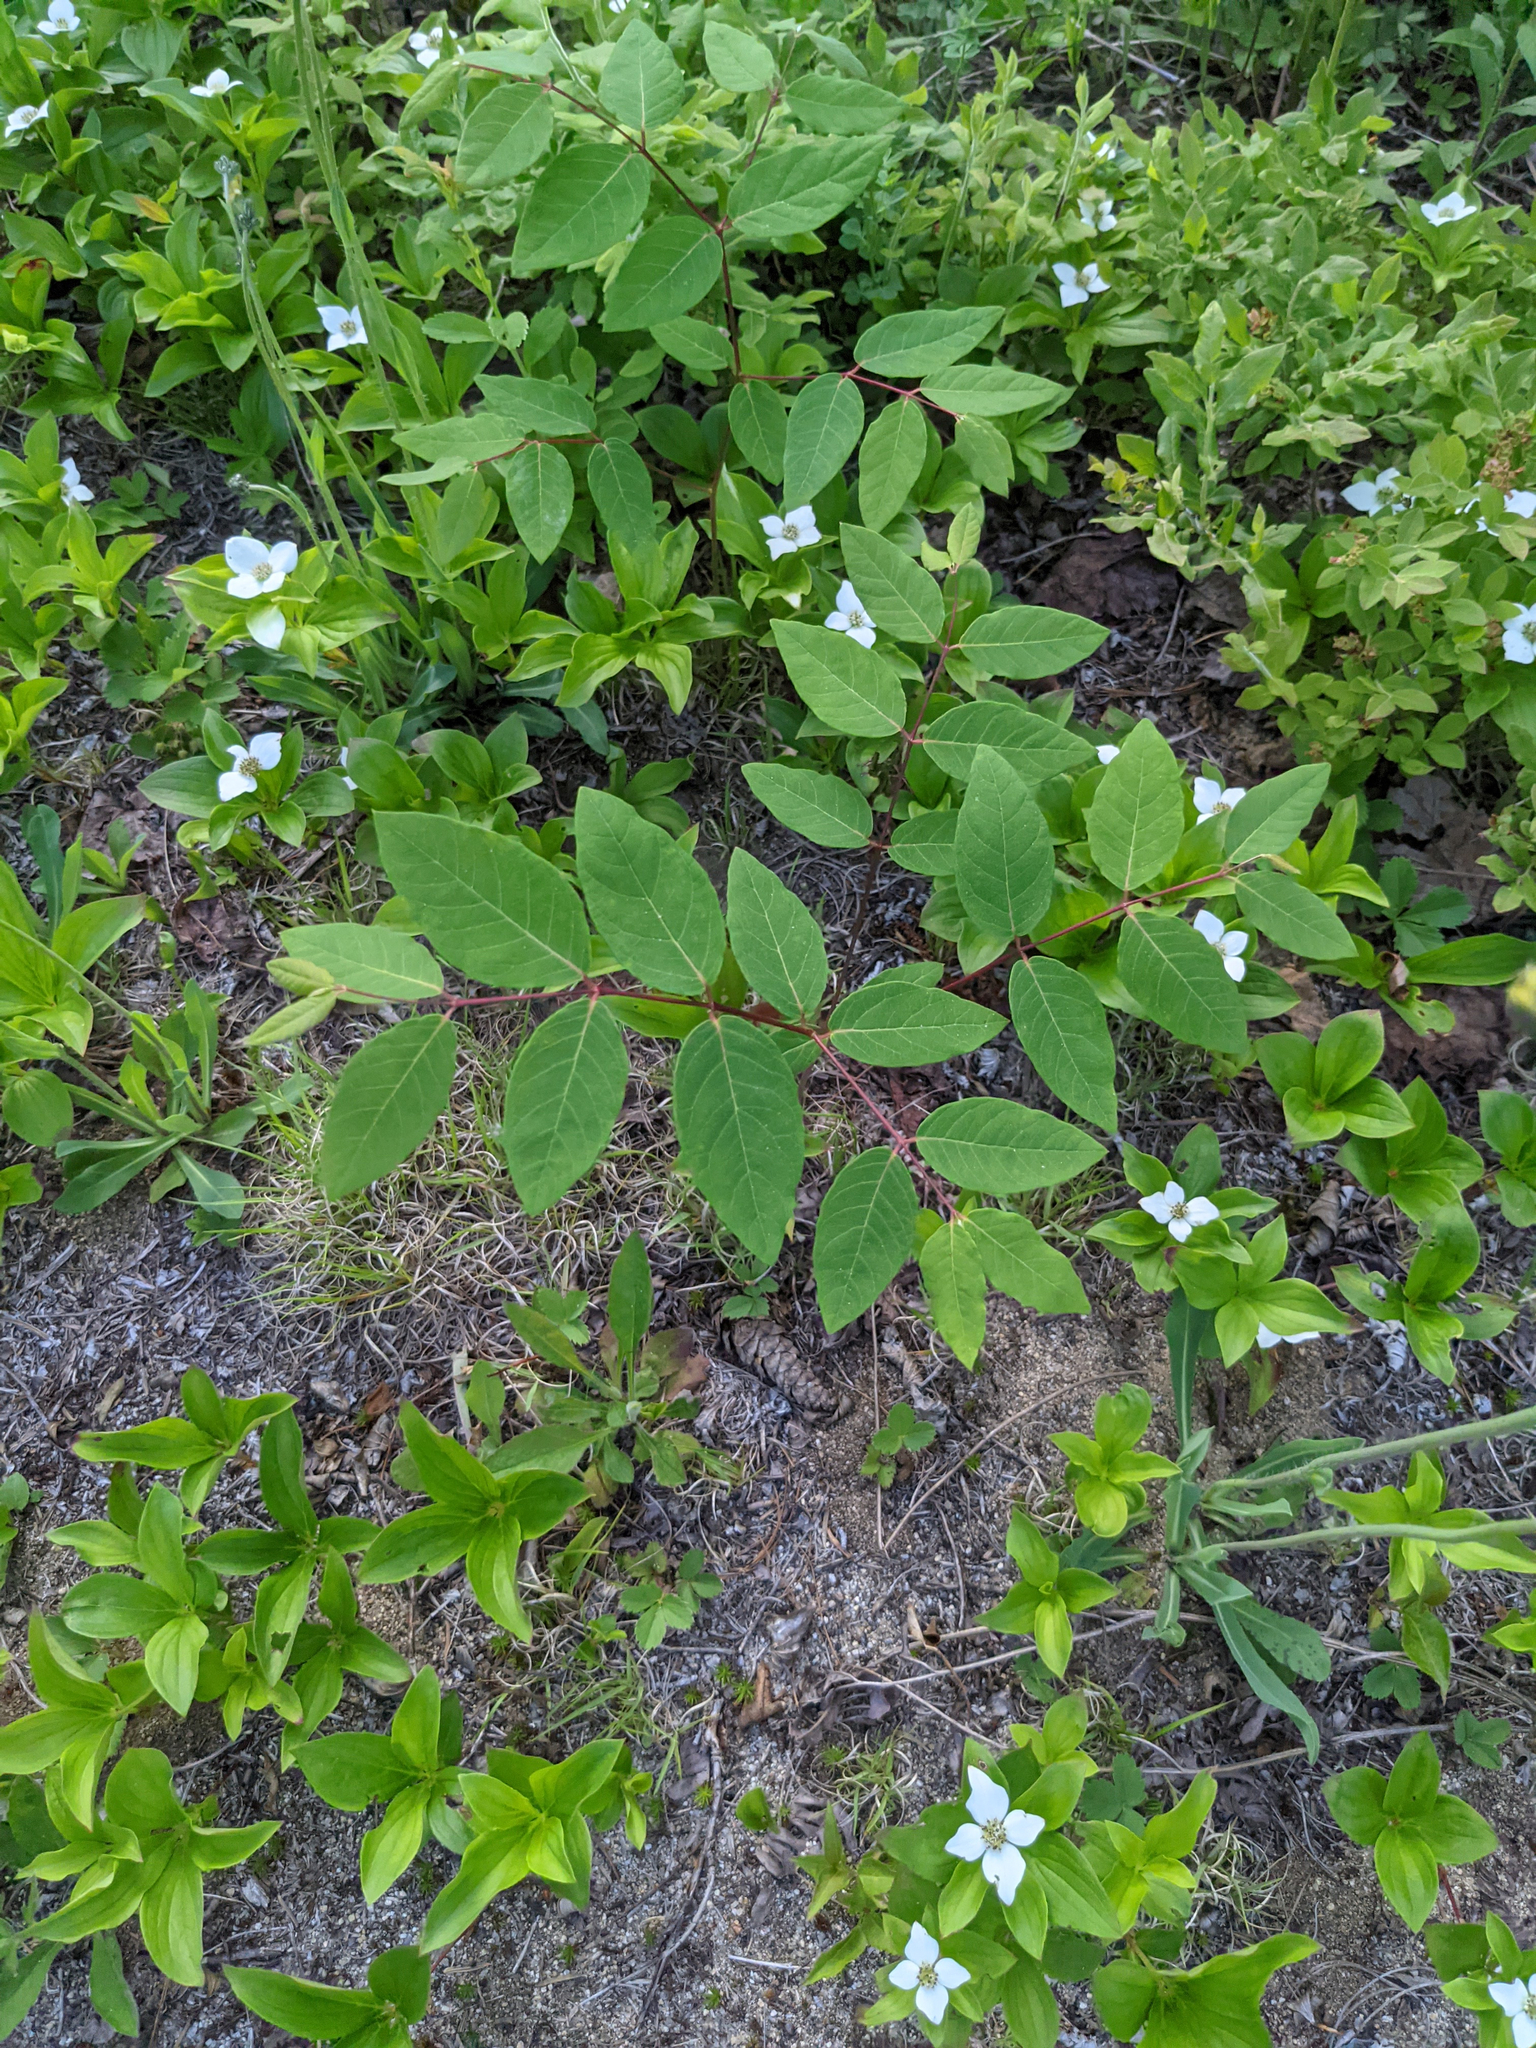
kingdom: Plantae
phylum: Tracheophyta
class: Magnoliopsida
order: Gentianales
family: Apocynaceae
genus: Apocynum
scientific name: Apocynum androsaemifolium
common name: Spreading dogbane
